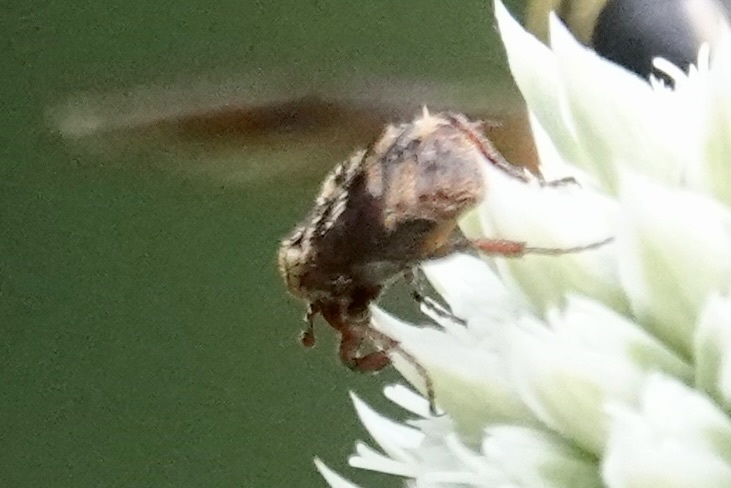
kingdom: Animalia
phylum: Arthropoda
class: Insecta
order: Coleoptera
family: Scarabaeidae
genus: Valgus
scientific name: Valgus canaliculatus
